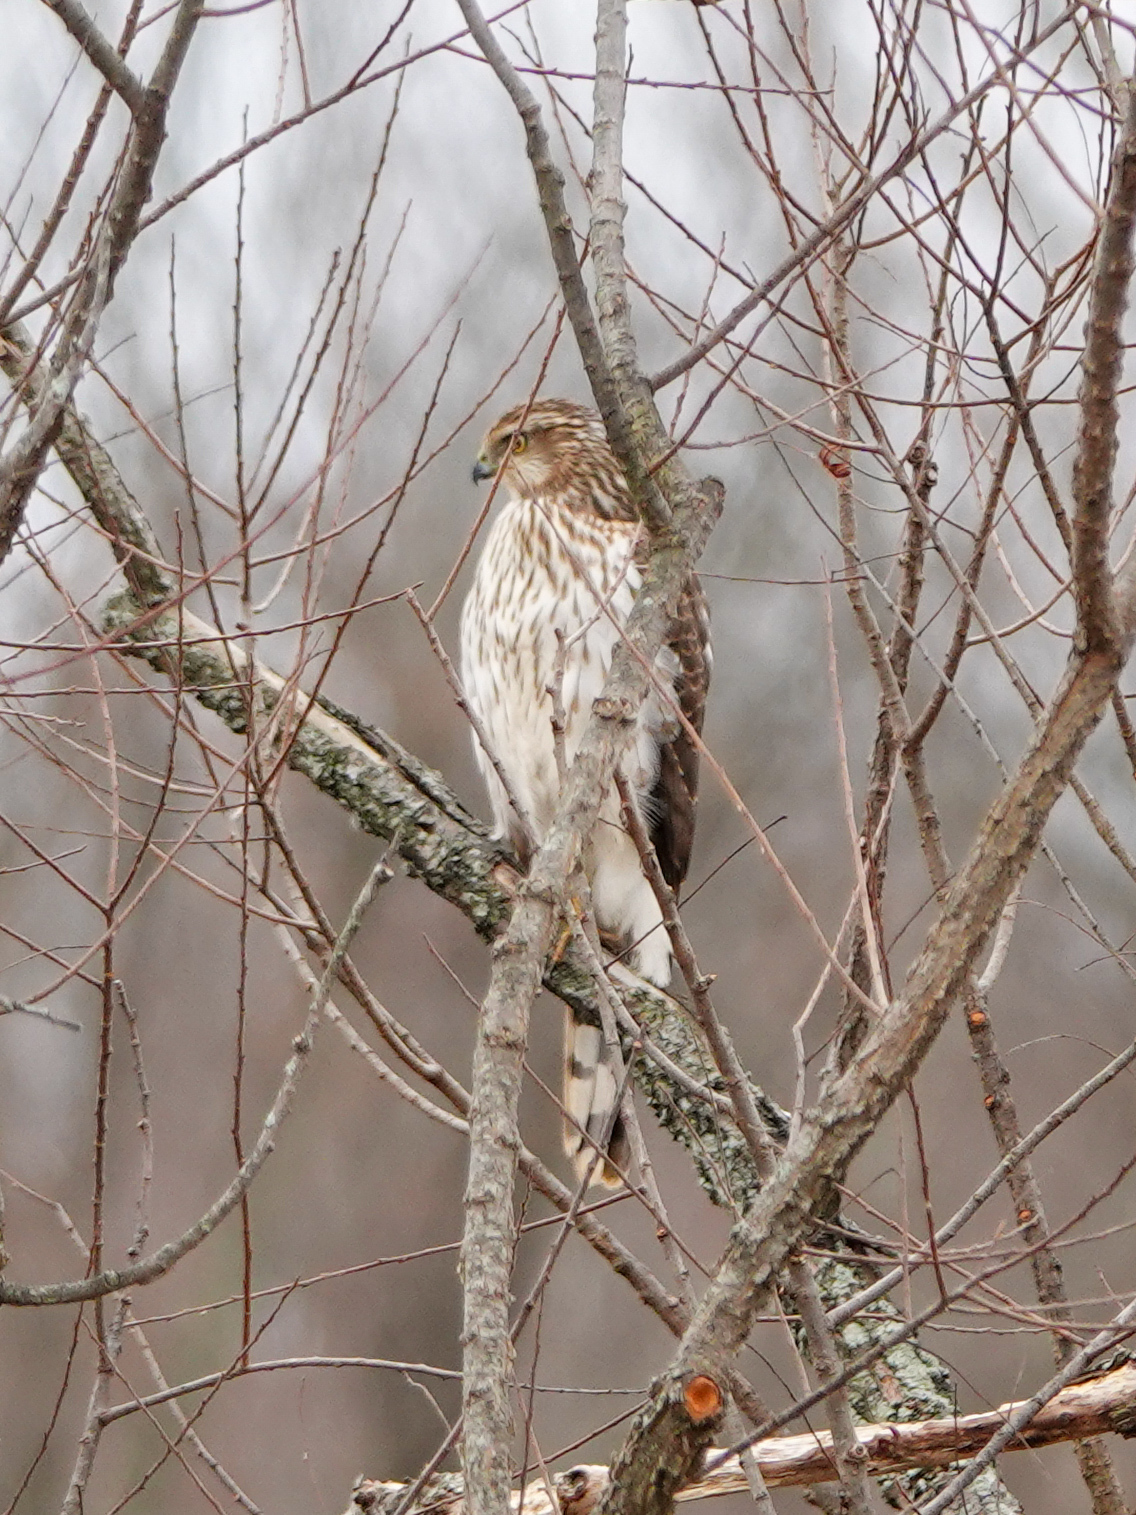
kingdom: Animalia
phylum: Chordata
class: Aves
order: Accipitriformes
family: Accipitridae
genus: Accipiter
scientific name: Accipiter cooperii
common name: Cooper's hawk
